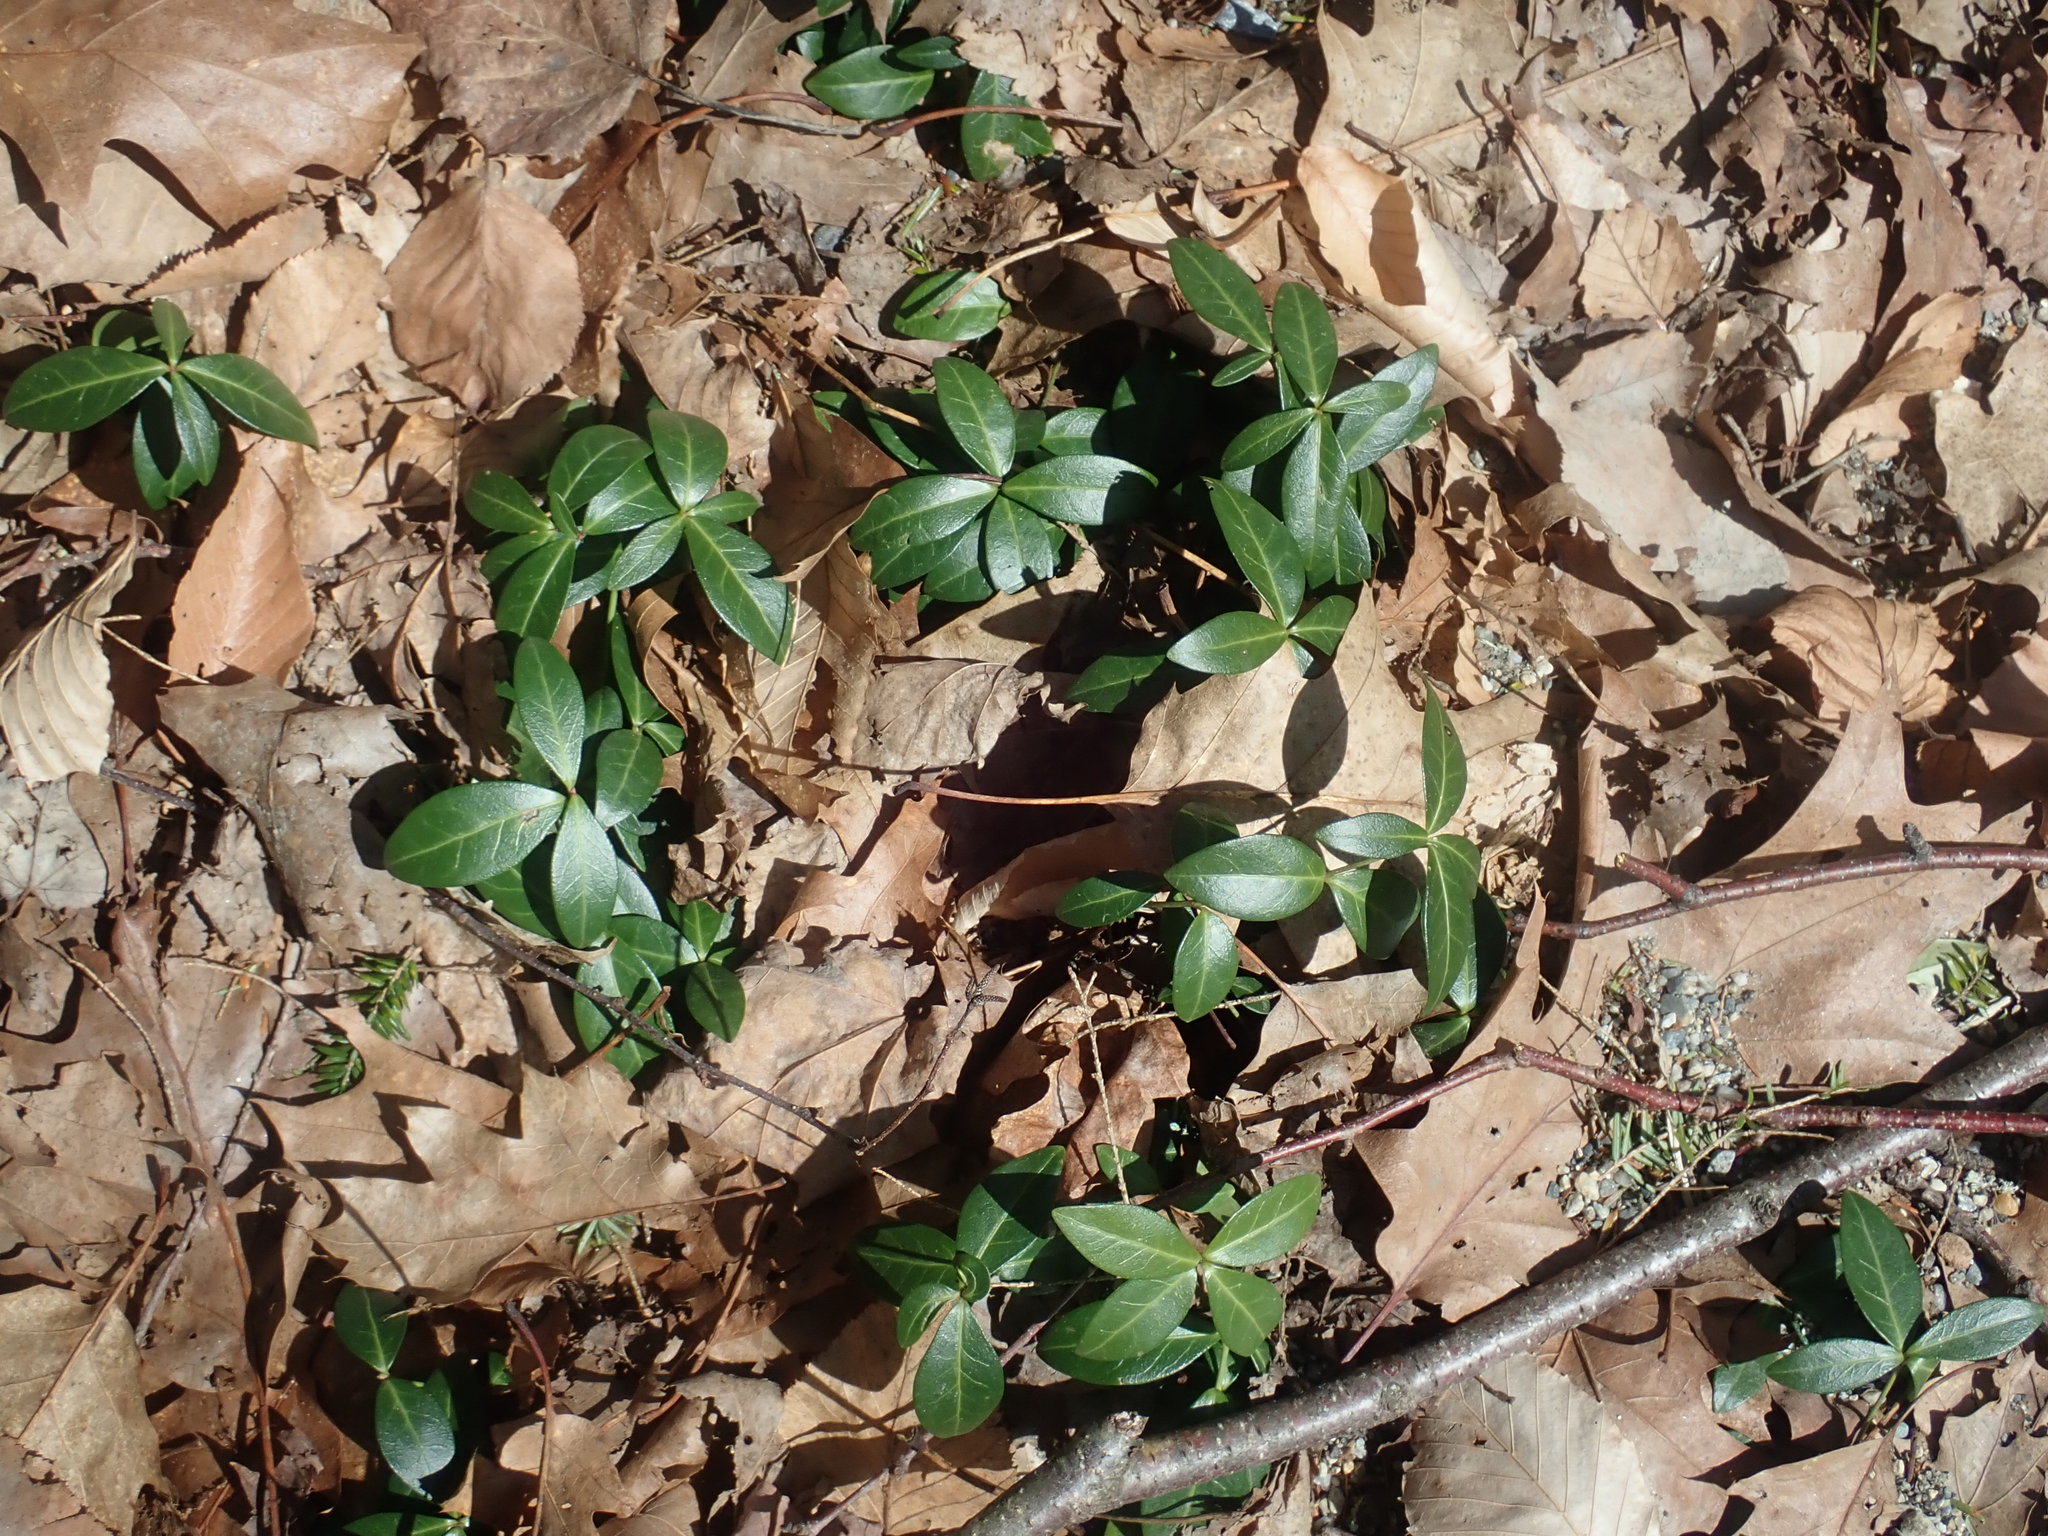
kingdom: Plantae
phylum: Tracheophyta
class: Magnoliopsida
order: Gentianales
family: Apocynaceae
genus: Vinca
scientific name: Vinca minor
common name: Lesser periwinkle
